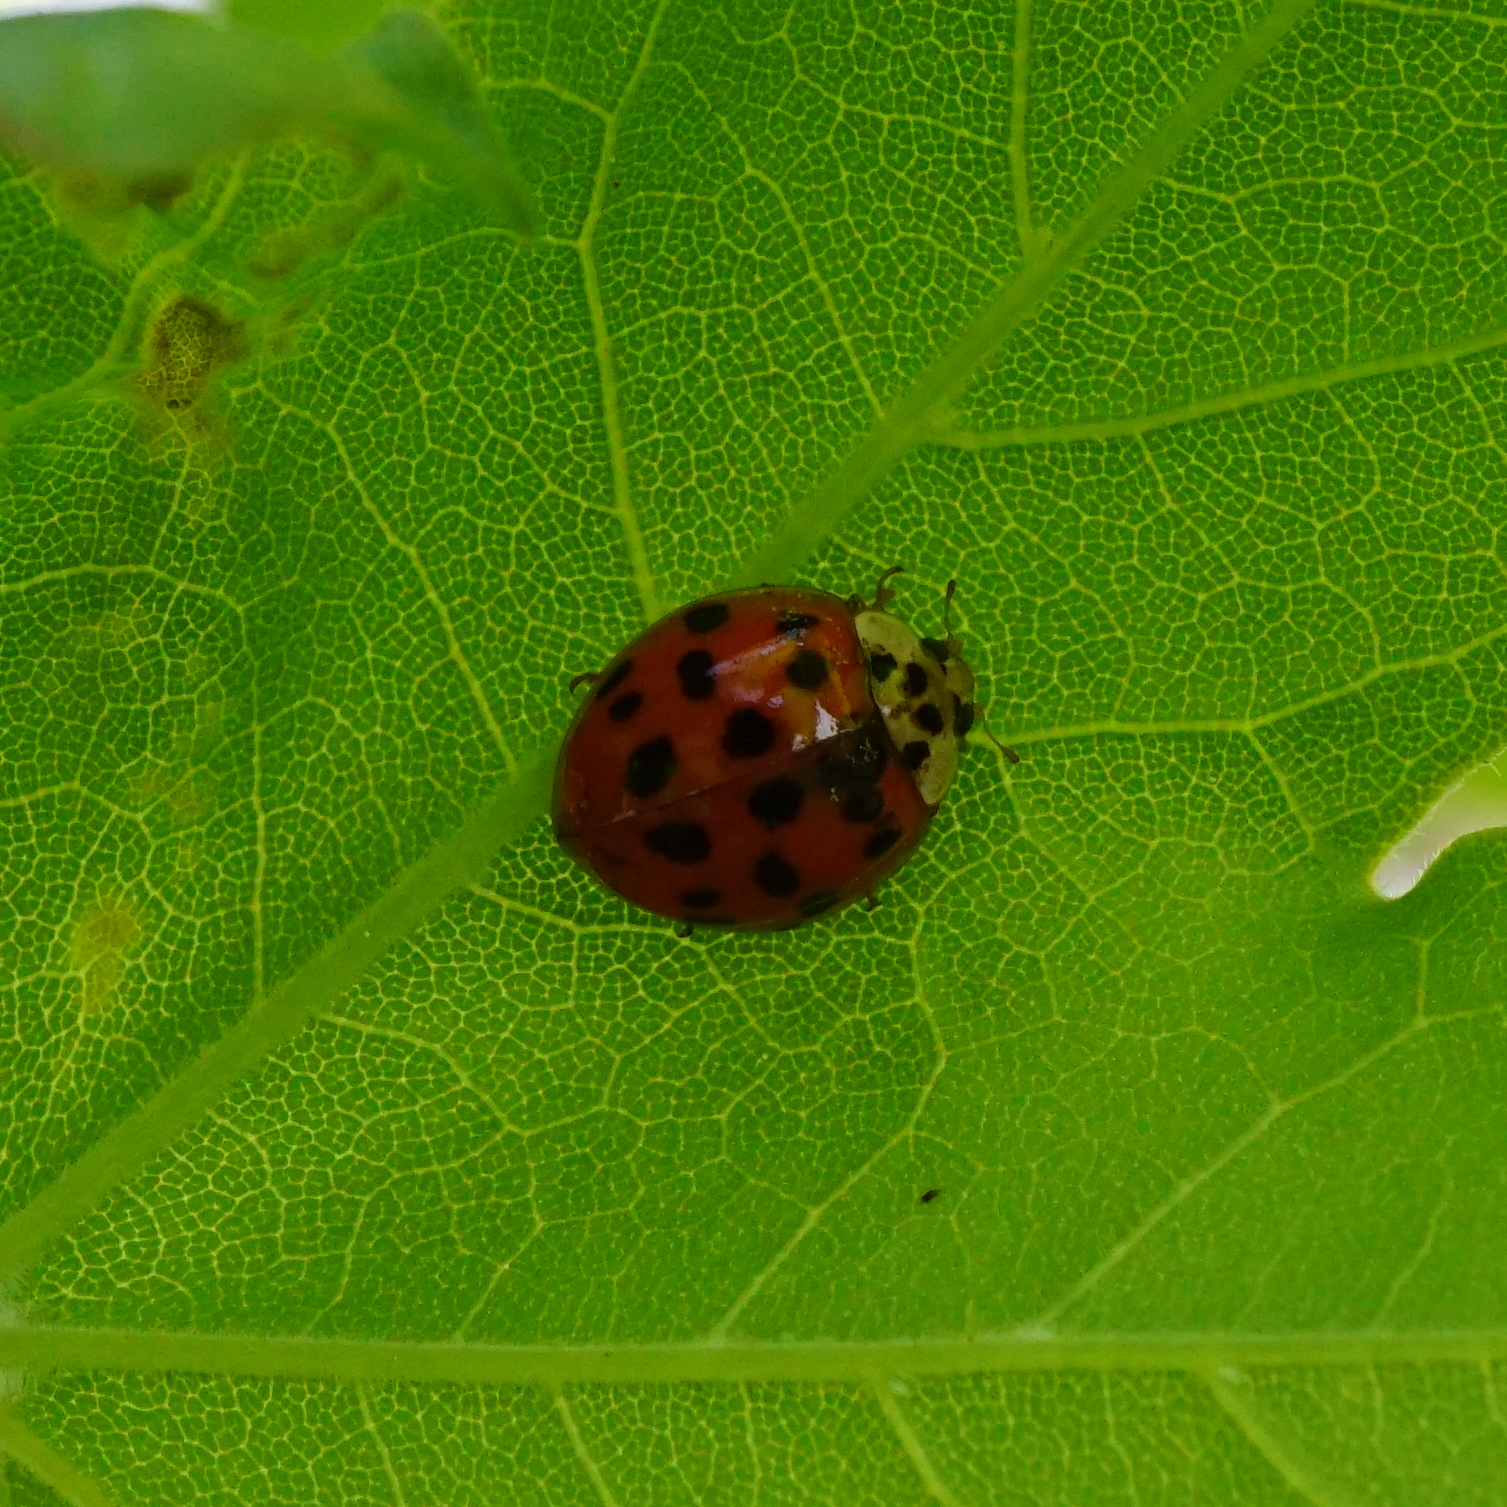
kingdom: Animalia
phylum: Arthropoda
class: Insecta
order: Coleoptera
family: Coccinellidae
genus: Harmonia
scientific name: Harmonia axyridis
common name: Harlequin ladybird
